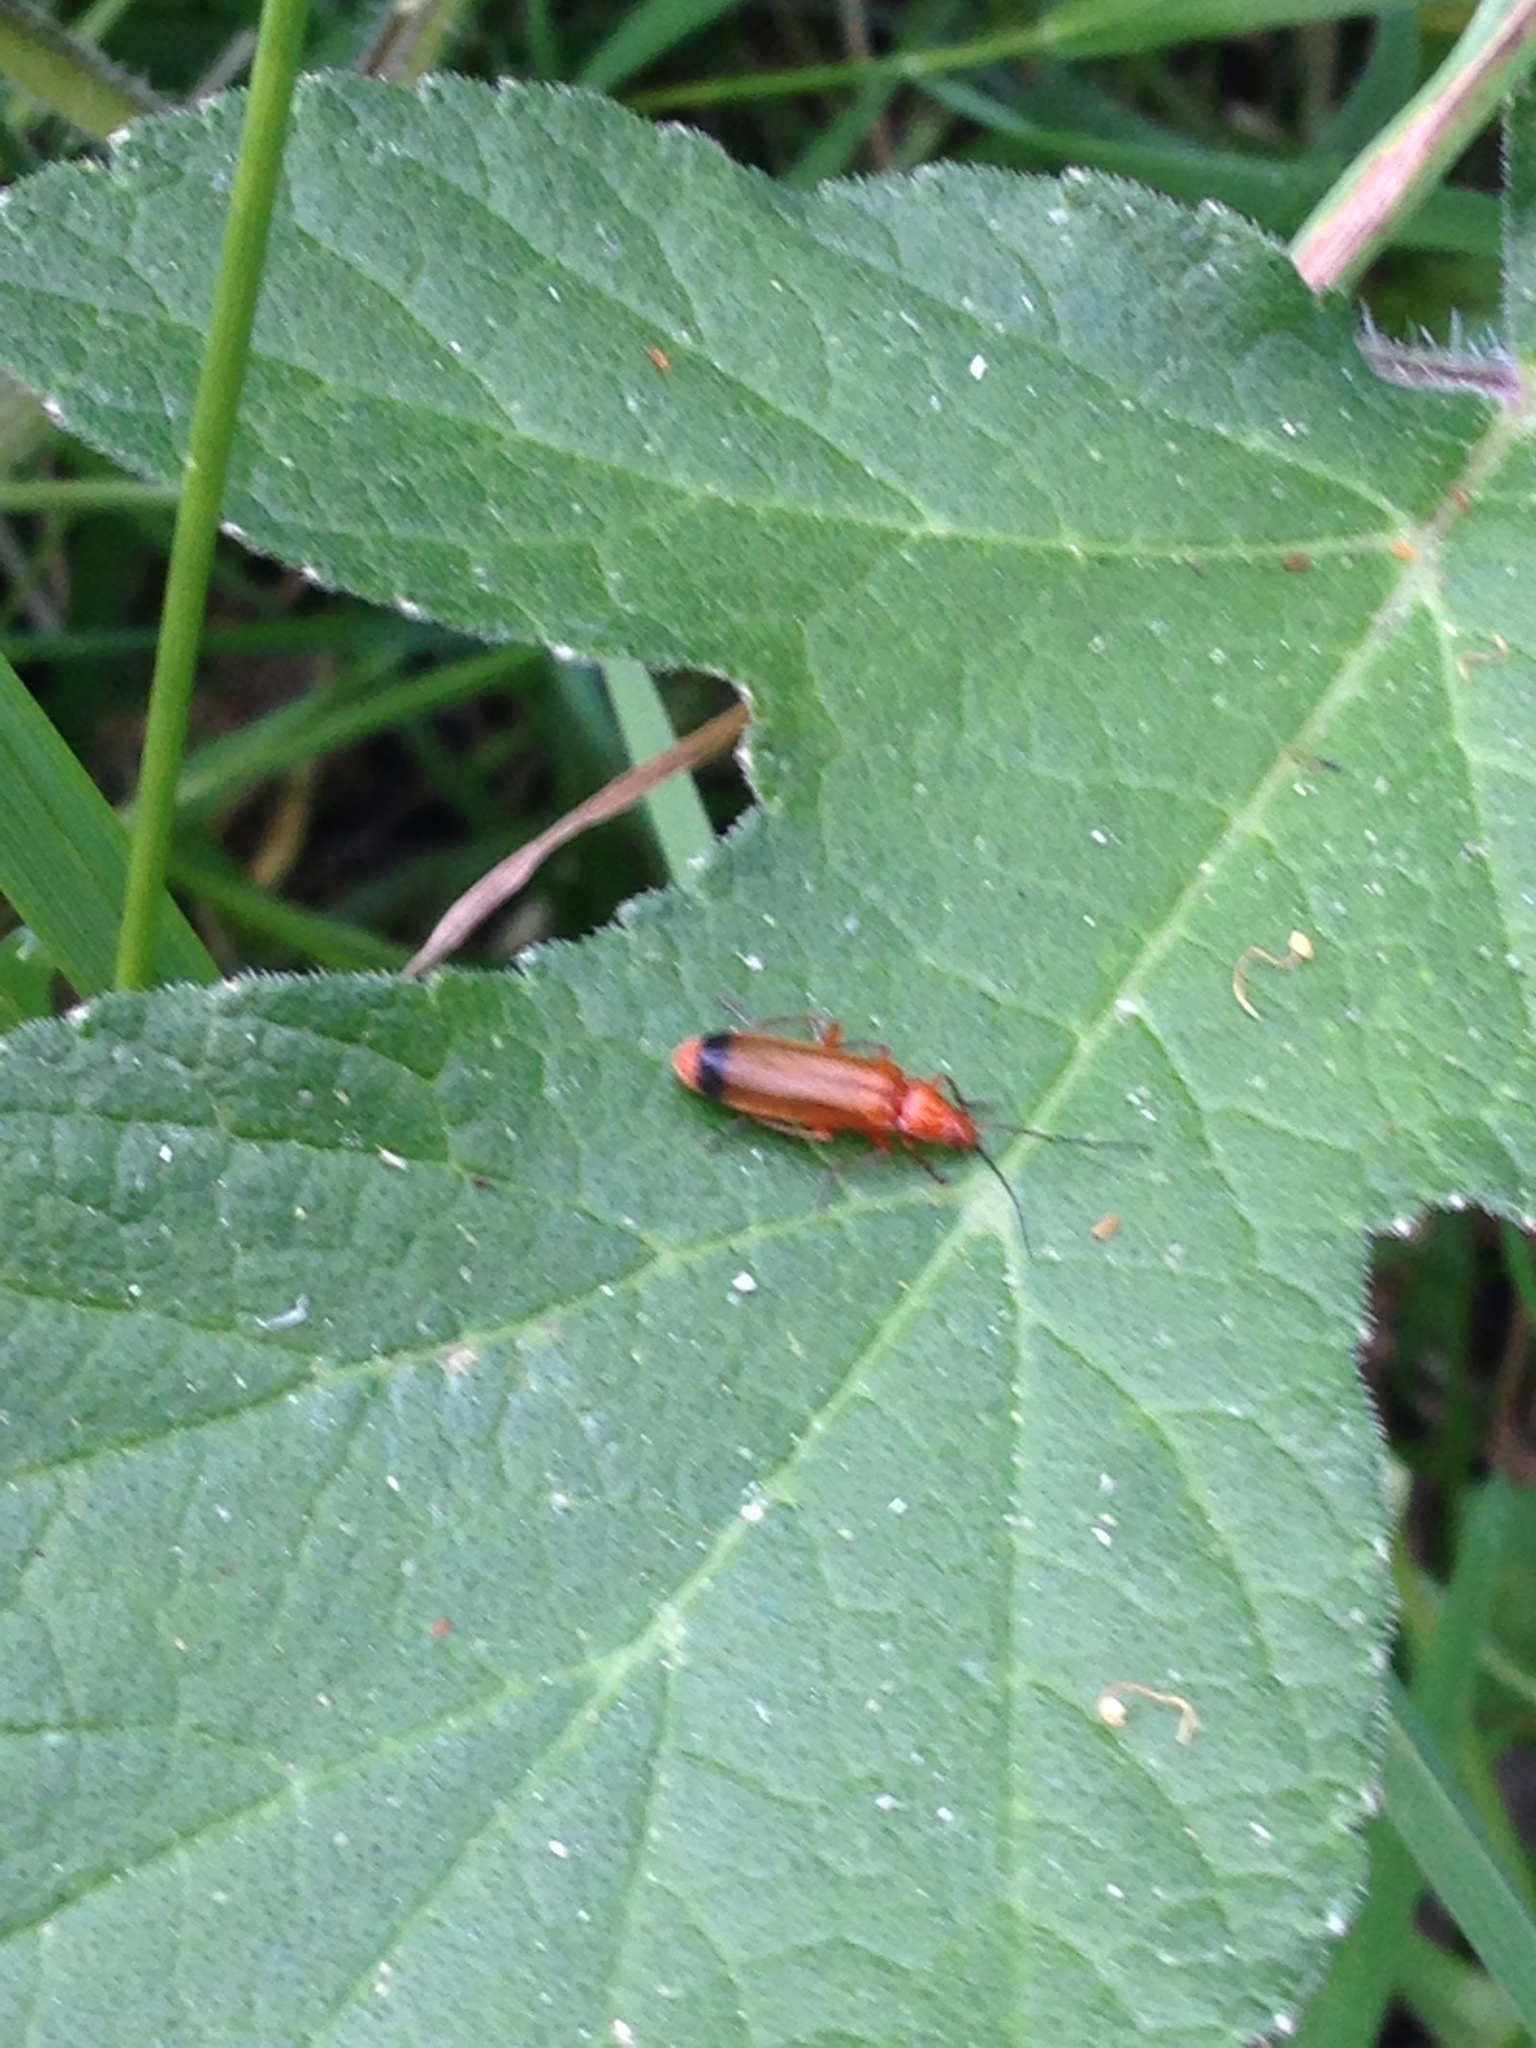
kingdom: Animalia
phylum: Arthropoda
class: Insecta
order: Coleoptera
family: Cantharidae
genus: Rhagonycha
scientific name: Rhagonycha fulva
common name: Common red soldier beetle
